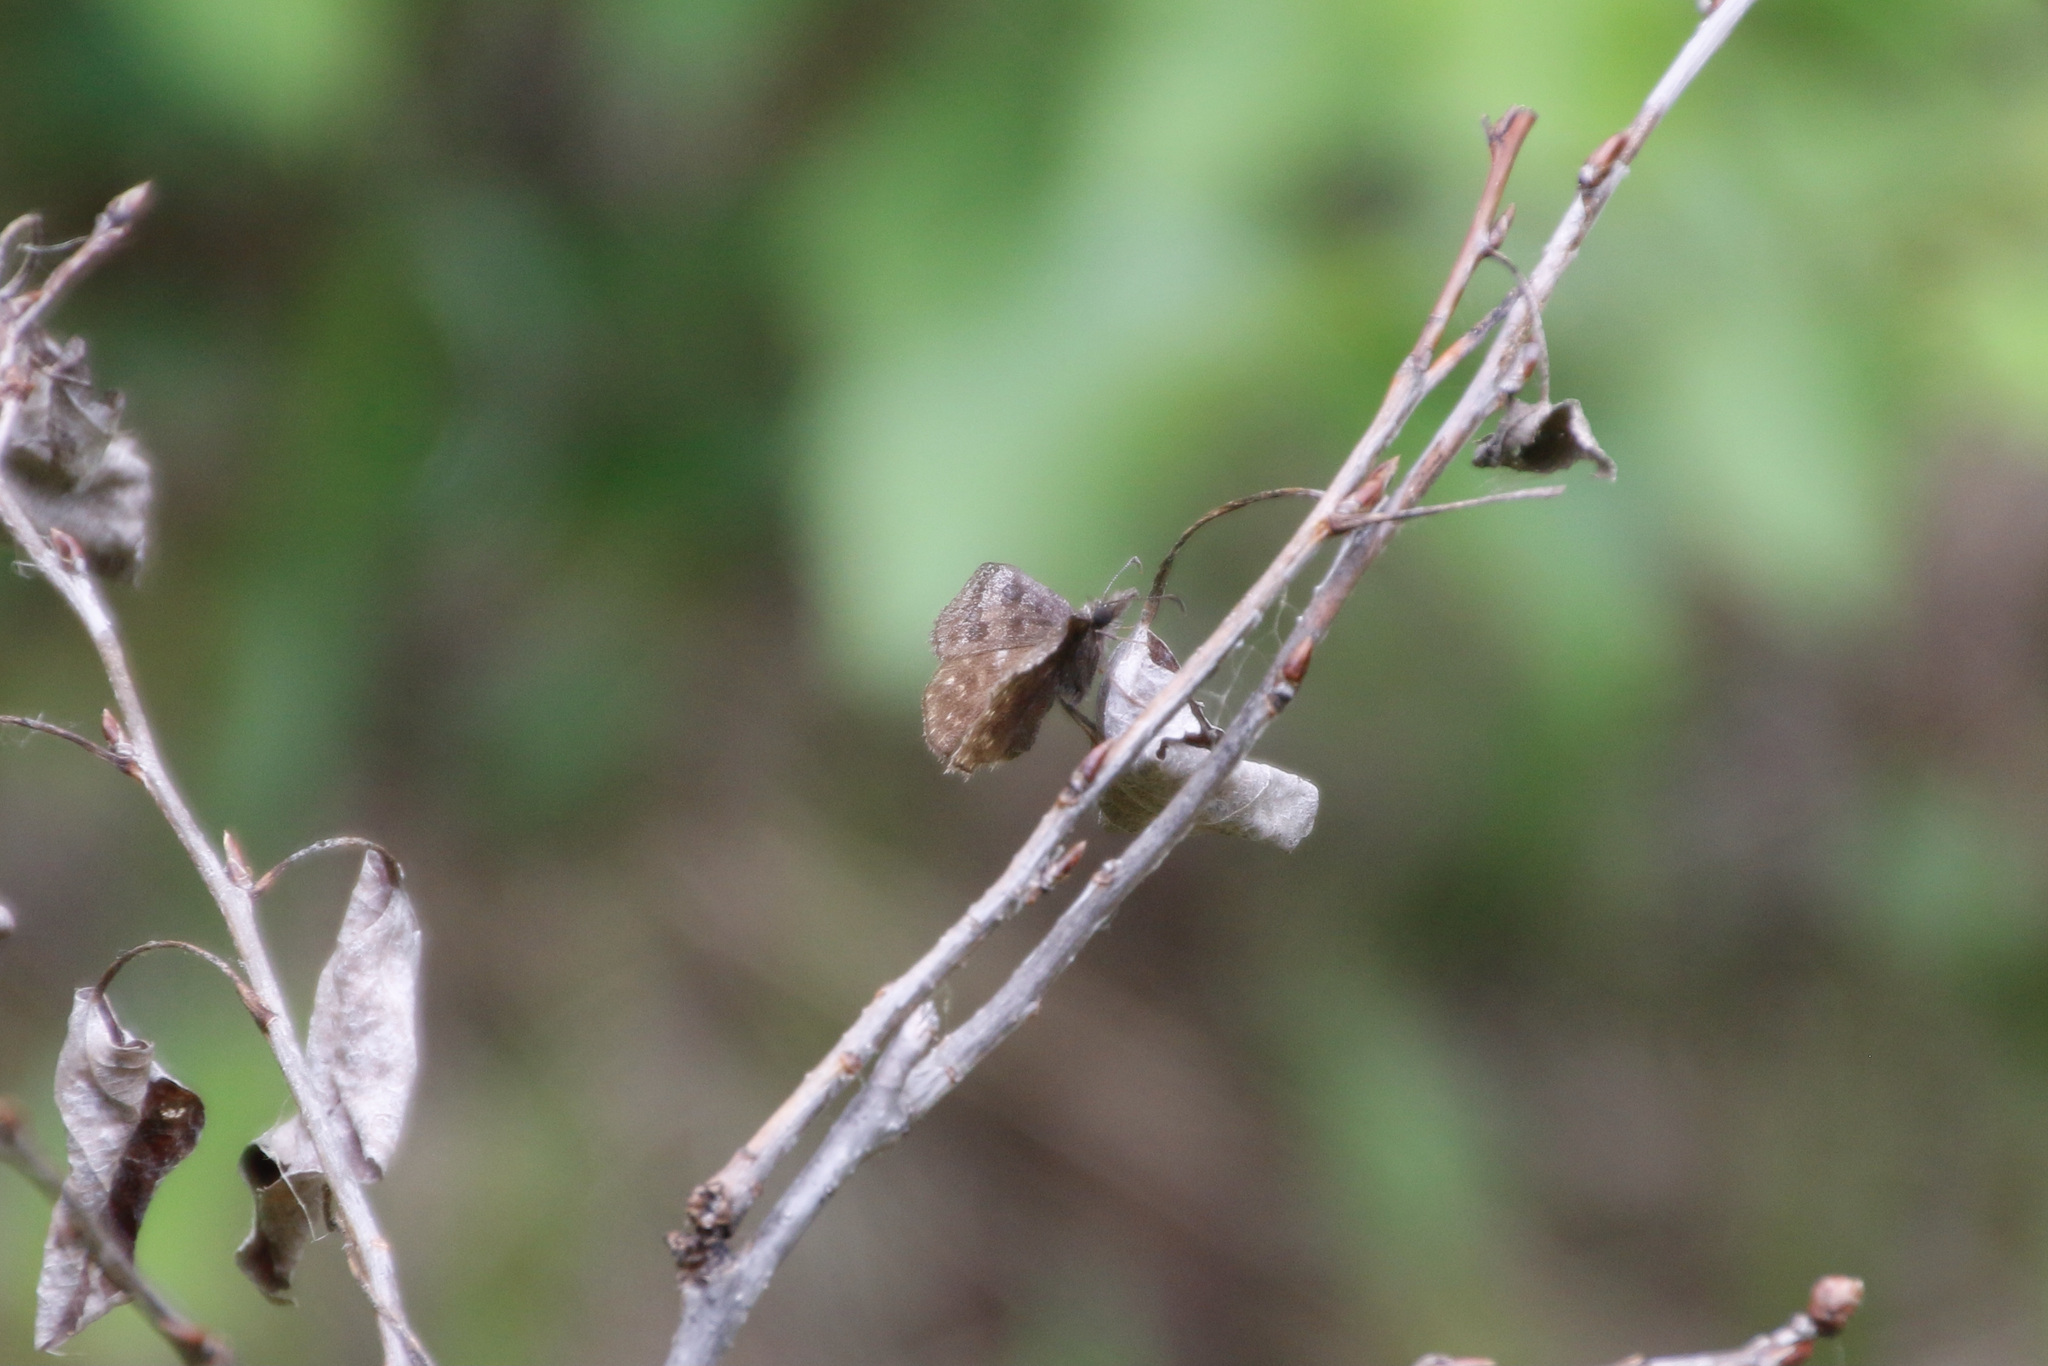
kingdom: Animalia
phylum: Arthropoda
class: Insecta
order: Lepidoptera
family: Hesperiidae
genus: Erynnis
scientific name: Erynnis icelus
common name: Dreamy duskywing
